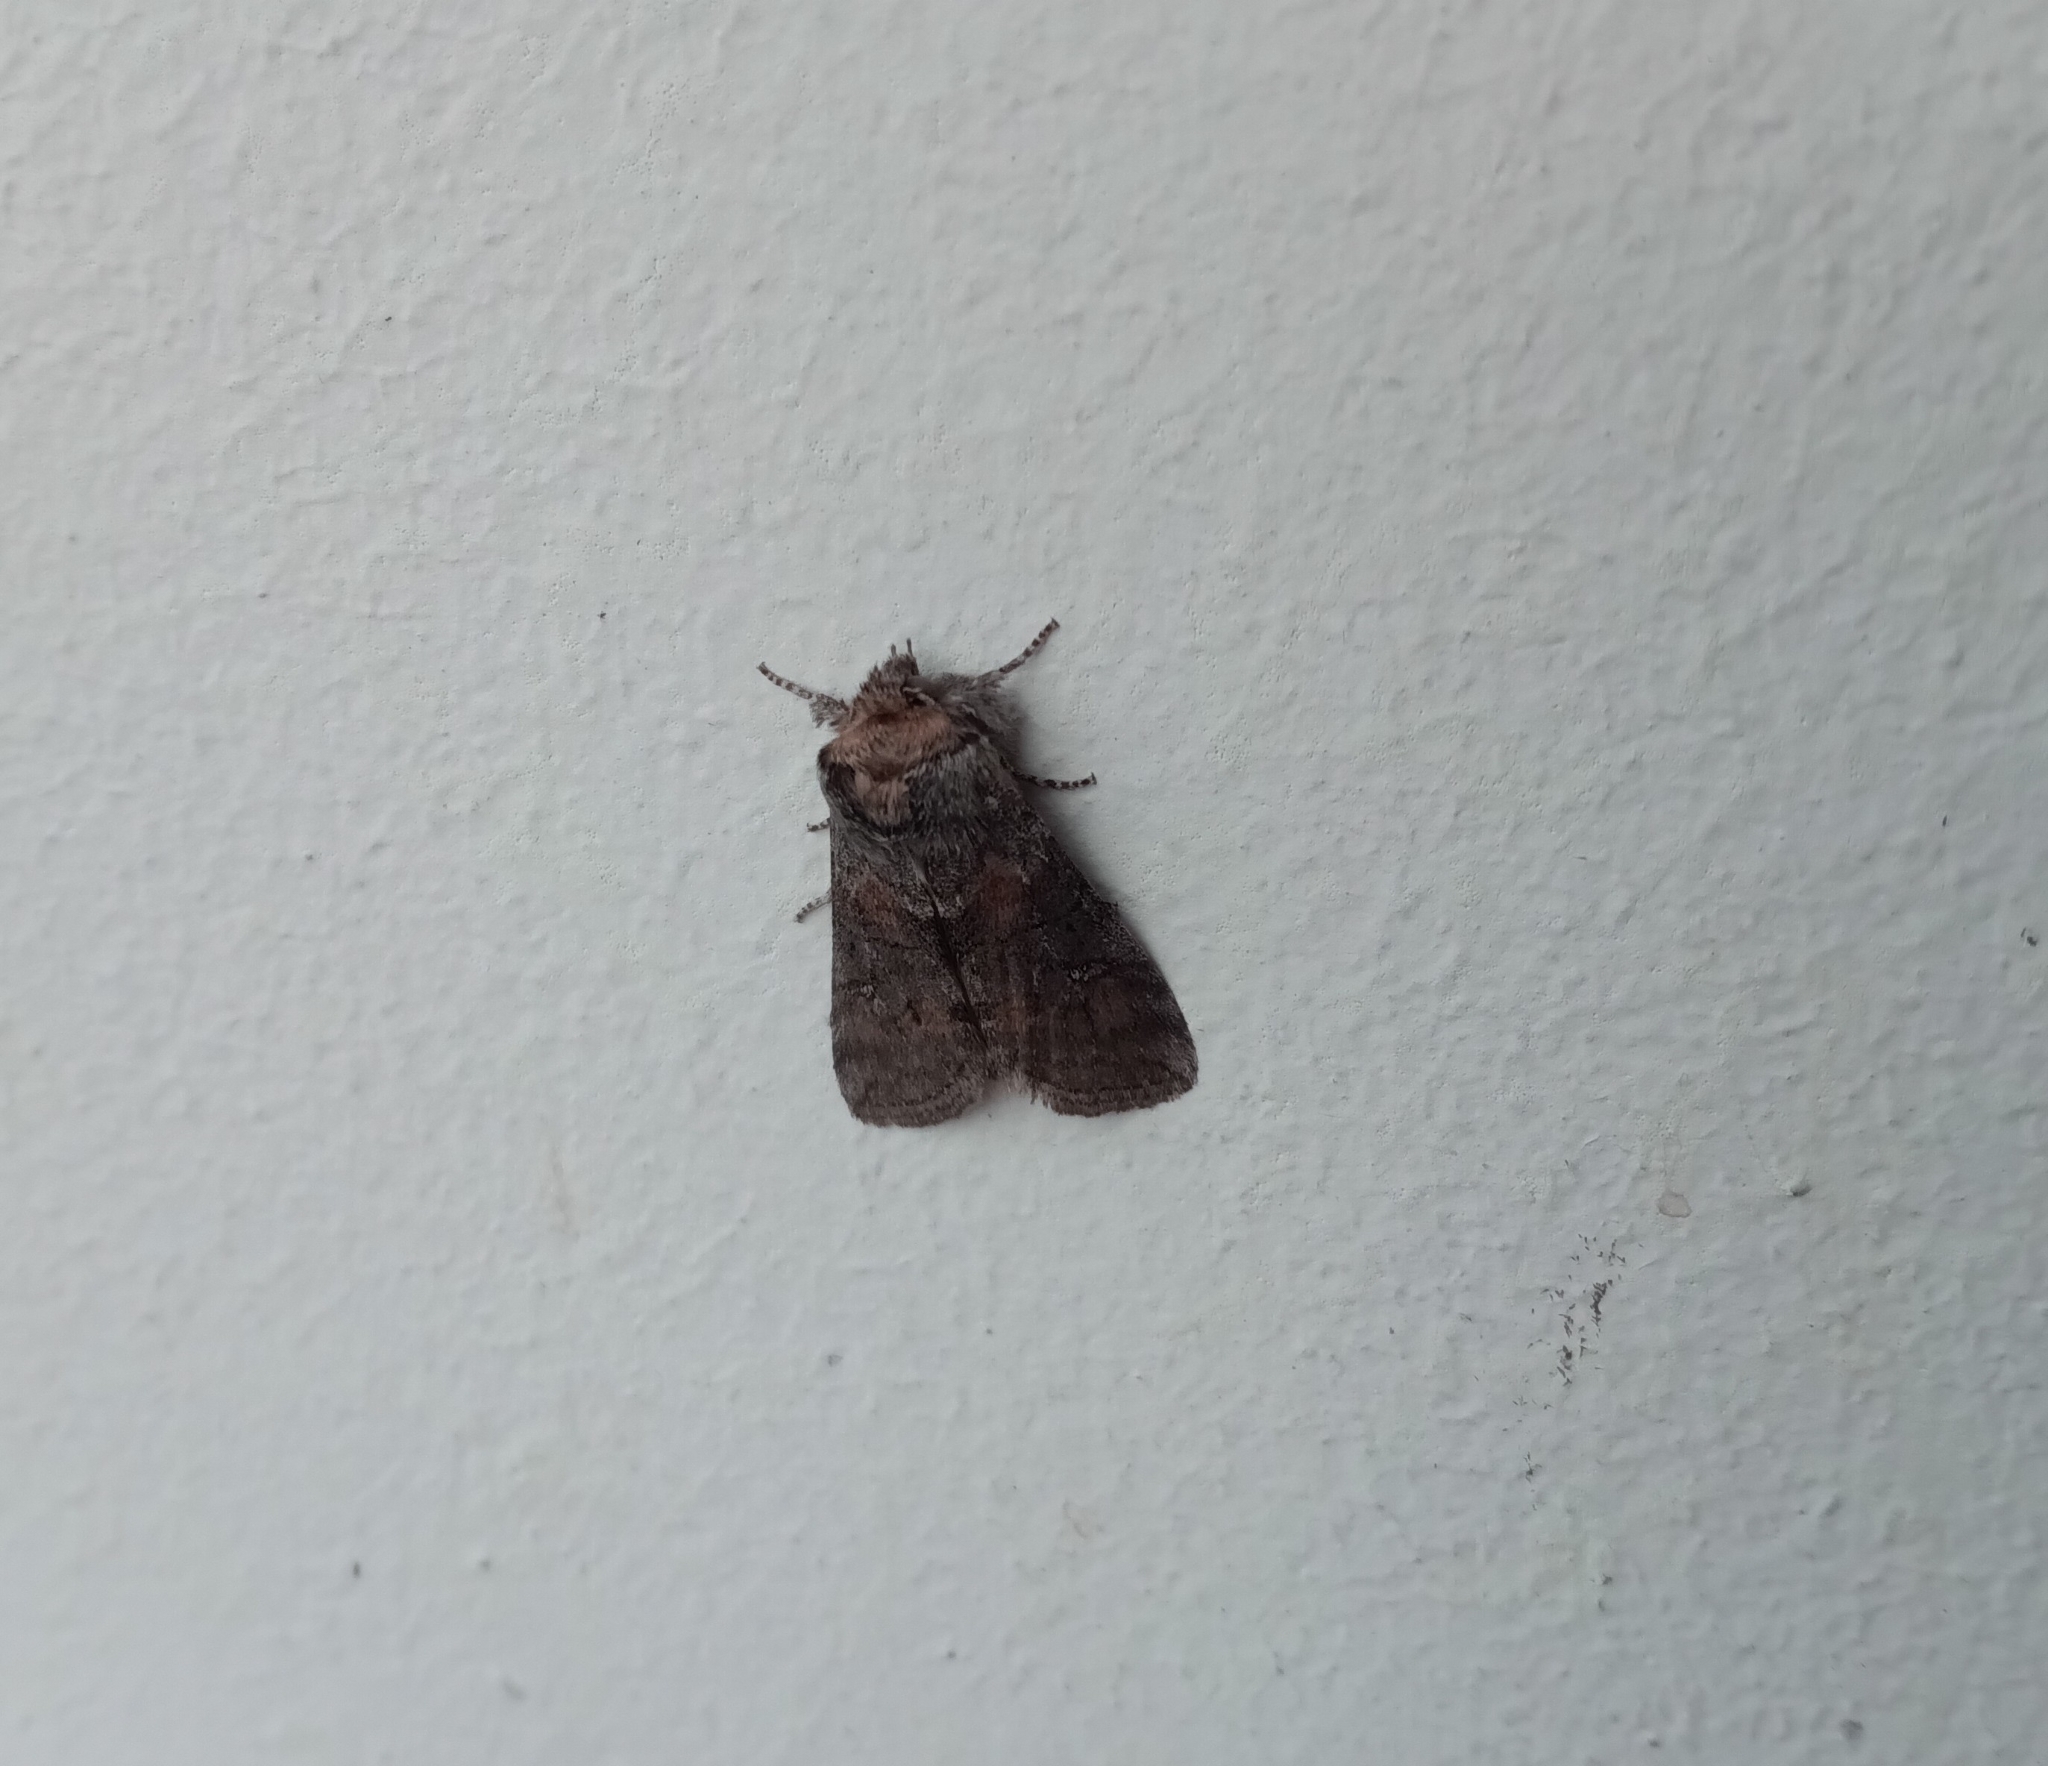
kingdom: Animalia
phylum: Arthropoda
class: Insecta
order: Lepidoptera
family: Drepanidae
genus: Polyploca
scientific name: Polyploca ruficollis
